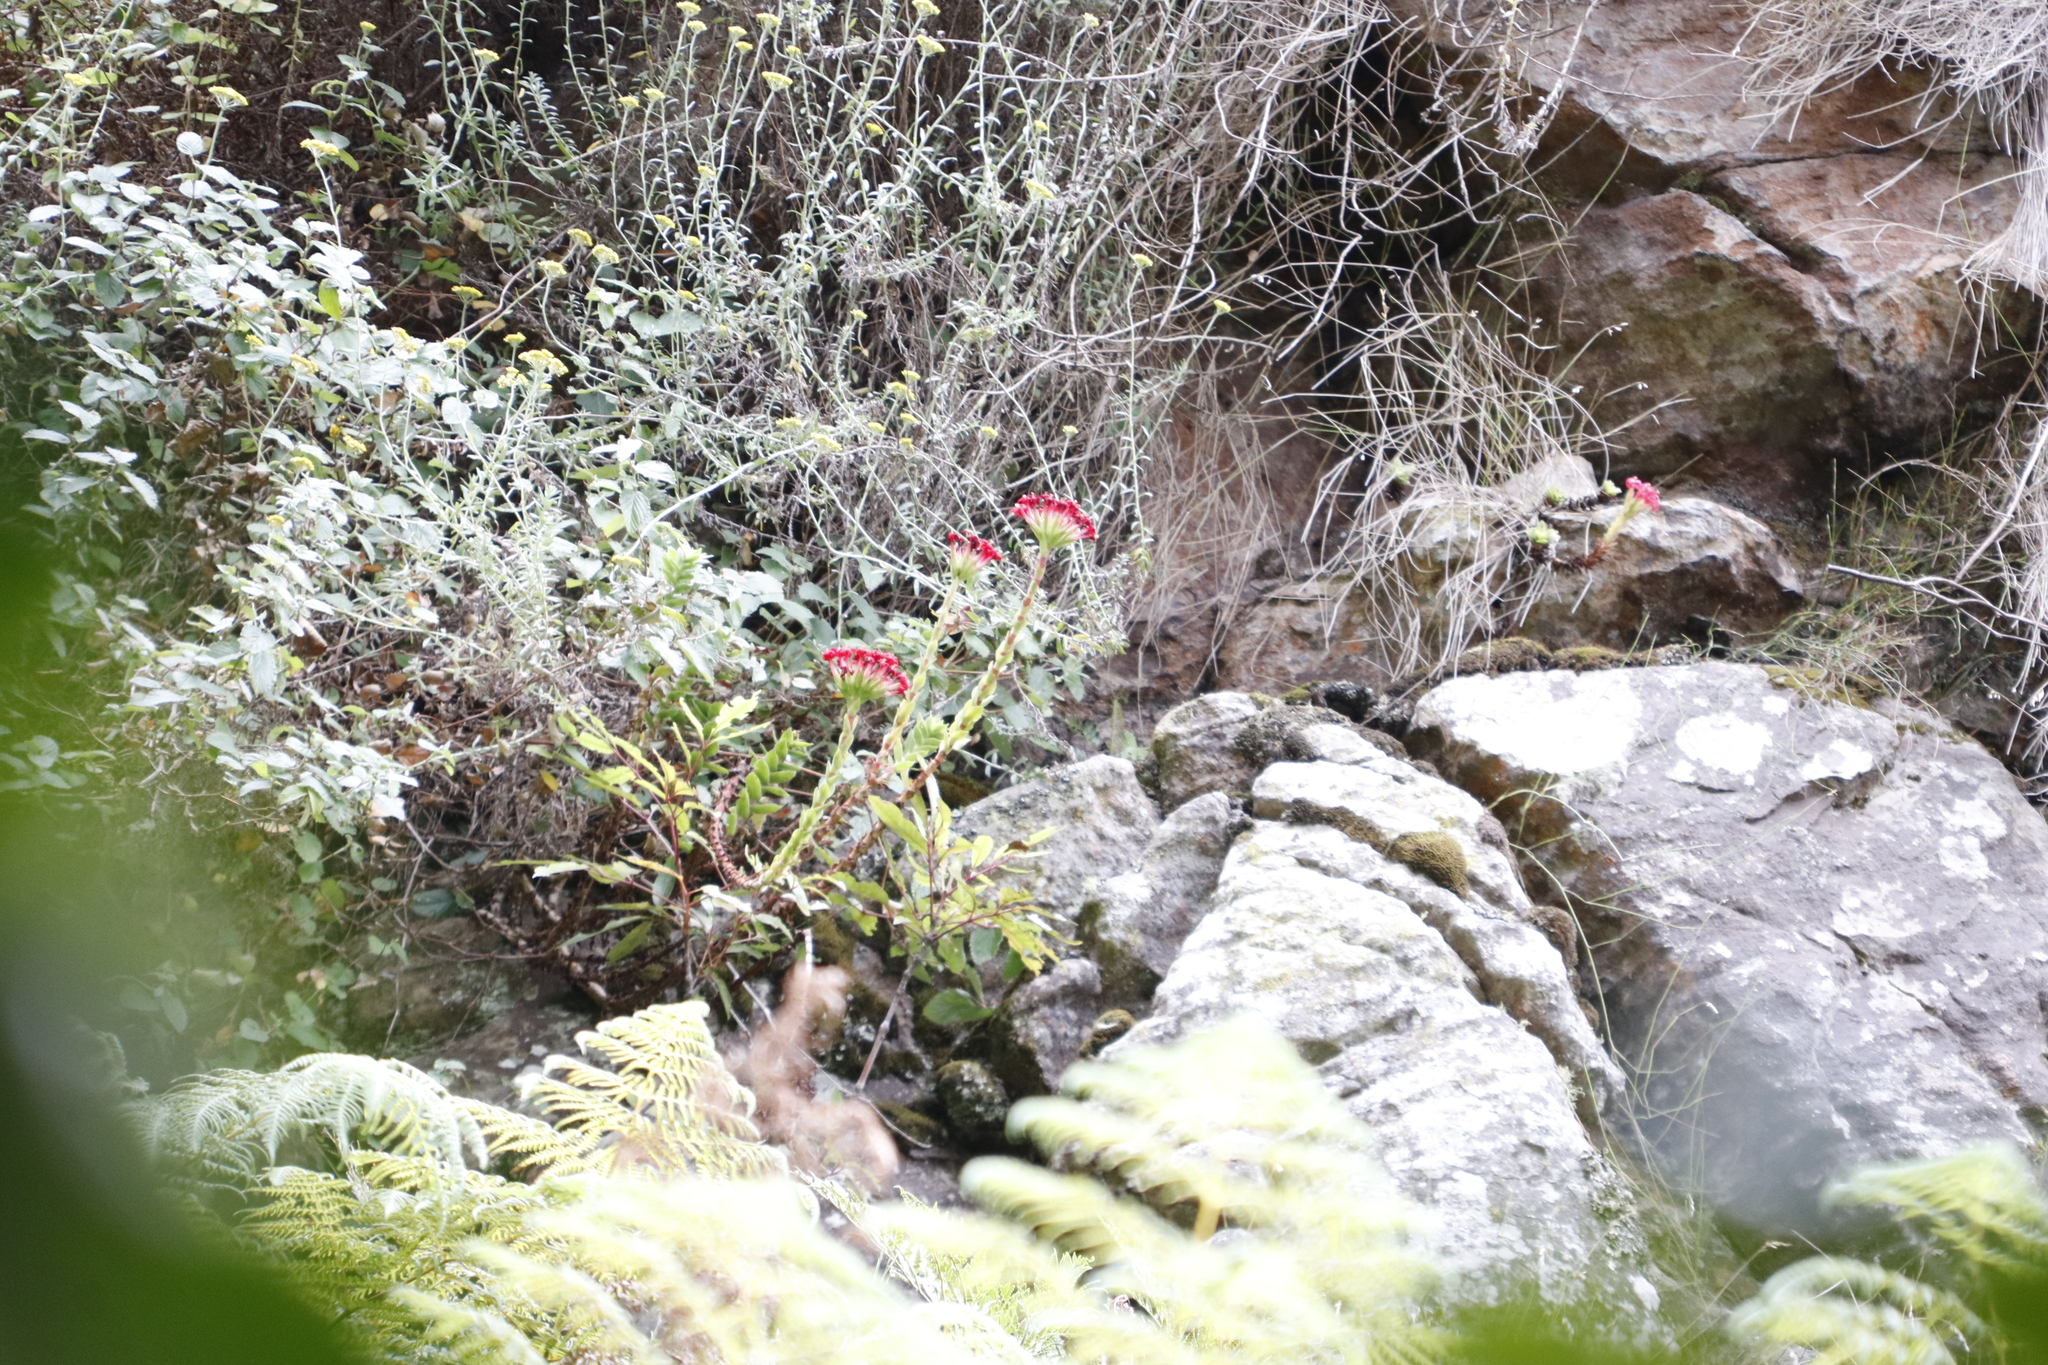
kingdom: Plantae
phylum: Tracheophyta
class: Magnoliopsida
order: Saxifragales
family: Crassulaceae
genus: Crassula
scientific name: Crassula coccinea
